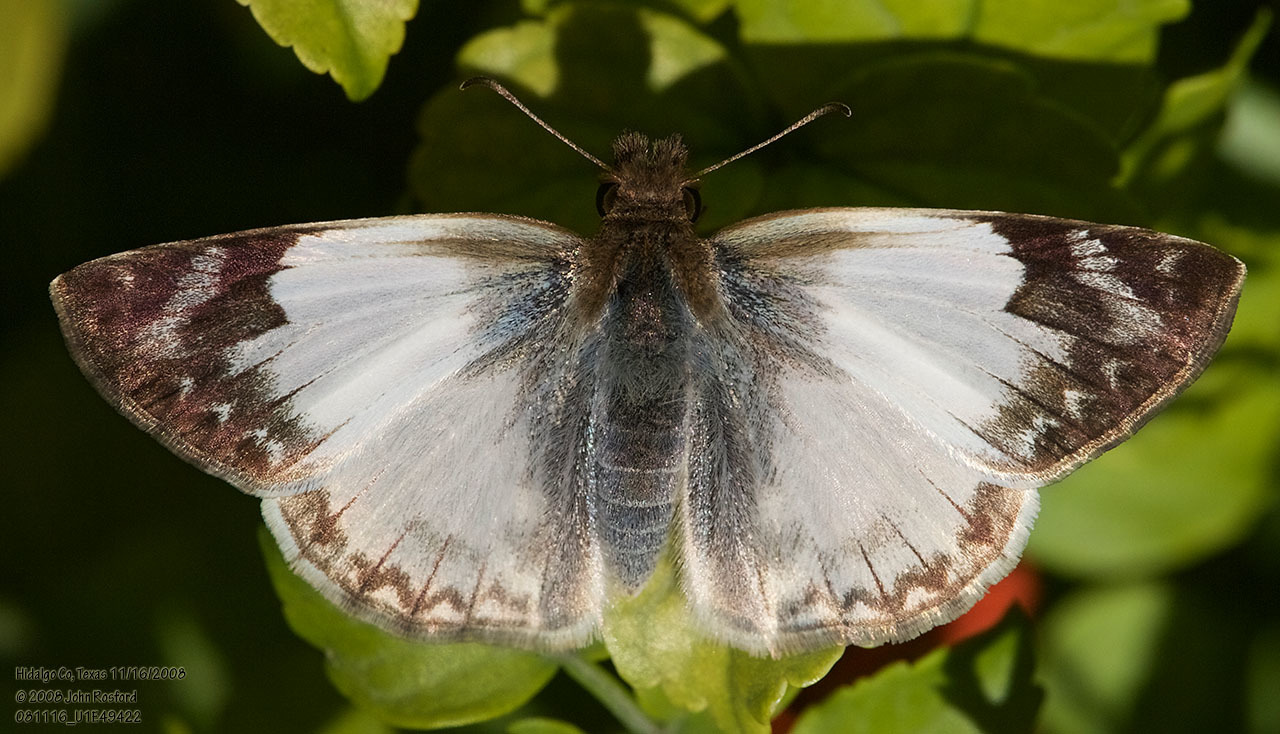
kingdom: Animalia
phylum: Arthropoda
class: Insecta
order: Lepidoptera
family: Hesperiidae
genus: Heliopetes
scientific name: Heliopetes laviana
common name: Laviana white-skipper
